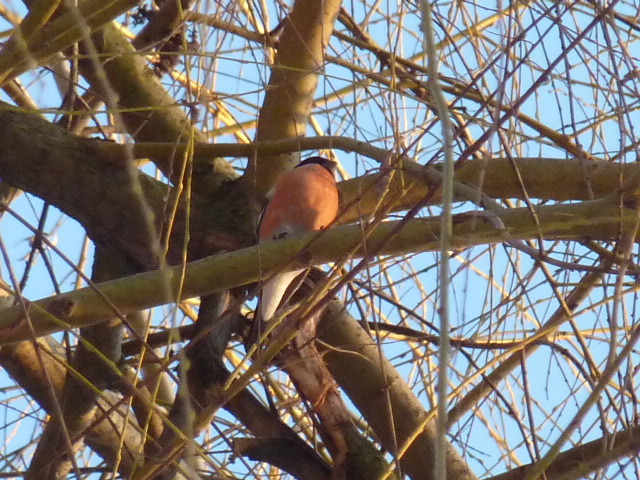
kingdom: Animalia
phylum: Chordata
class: Aves
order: Passeriformes
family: Fringillidae
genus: Pyrrhula
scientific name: Pyrrhula pyrrhula
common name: Eurasian bullfinch
